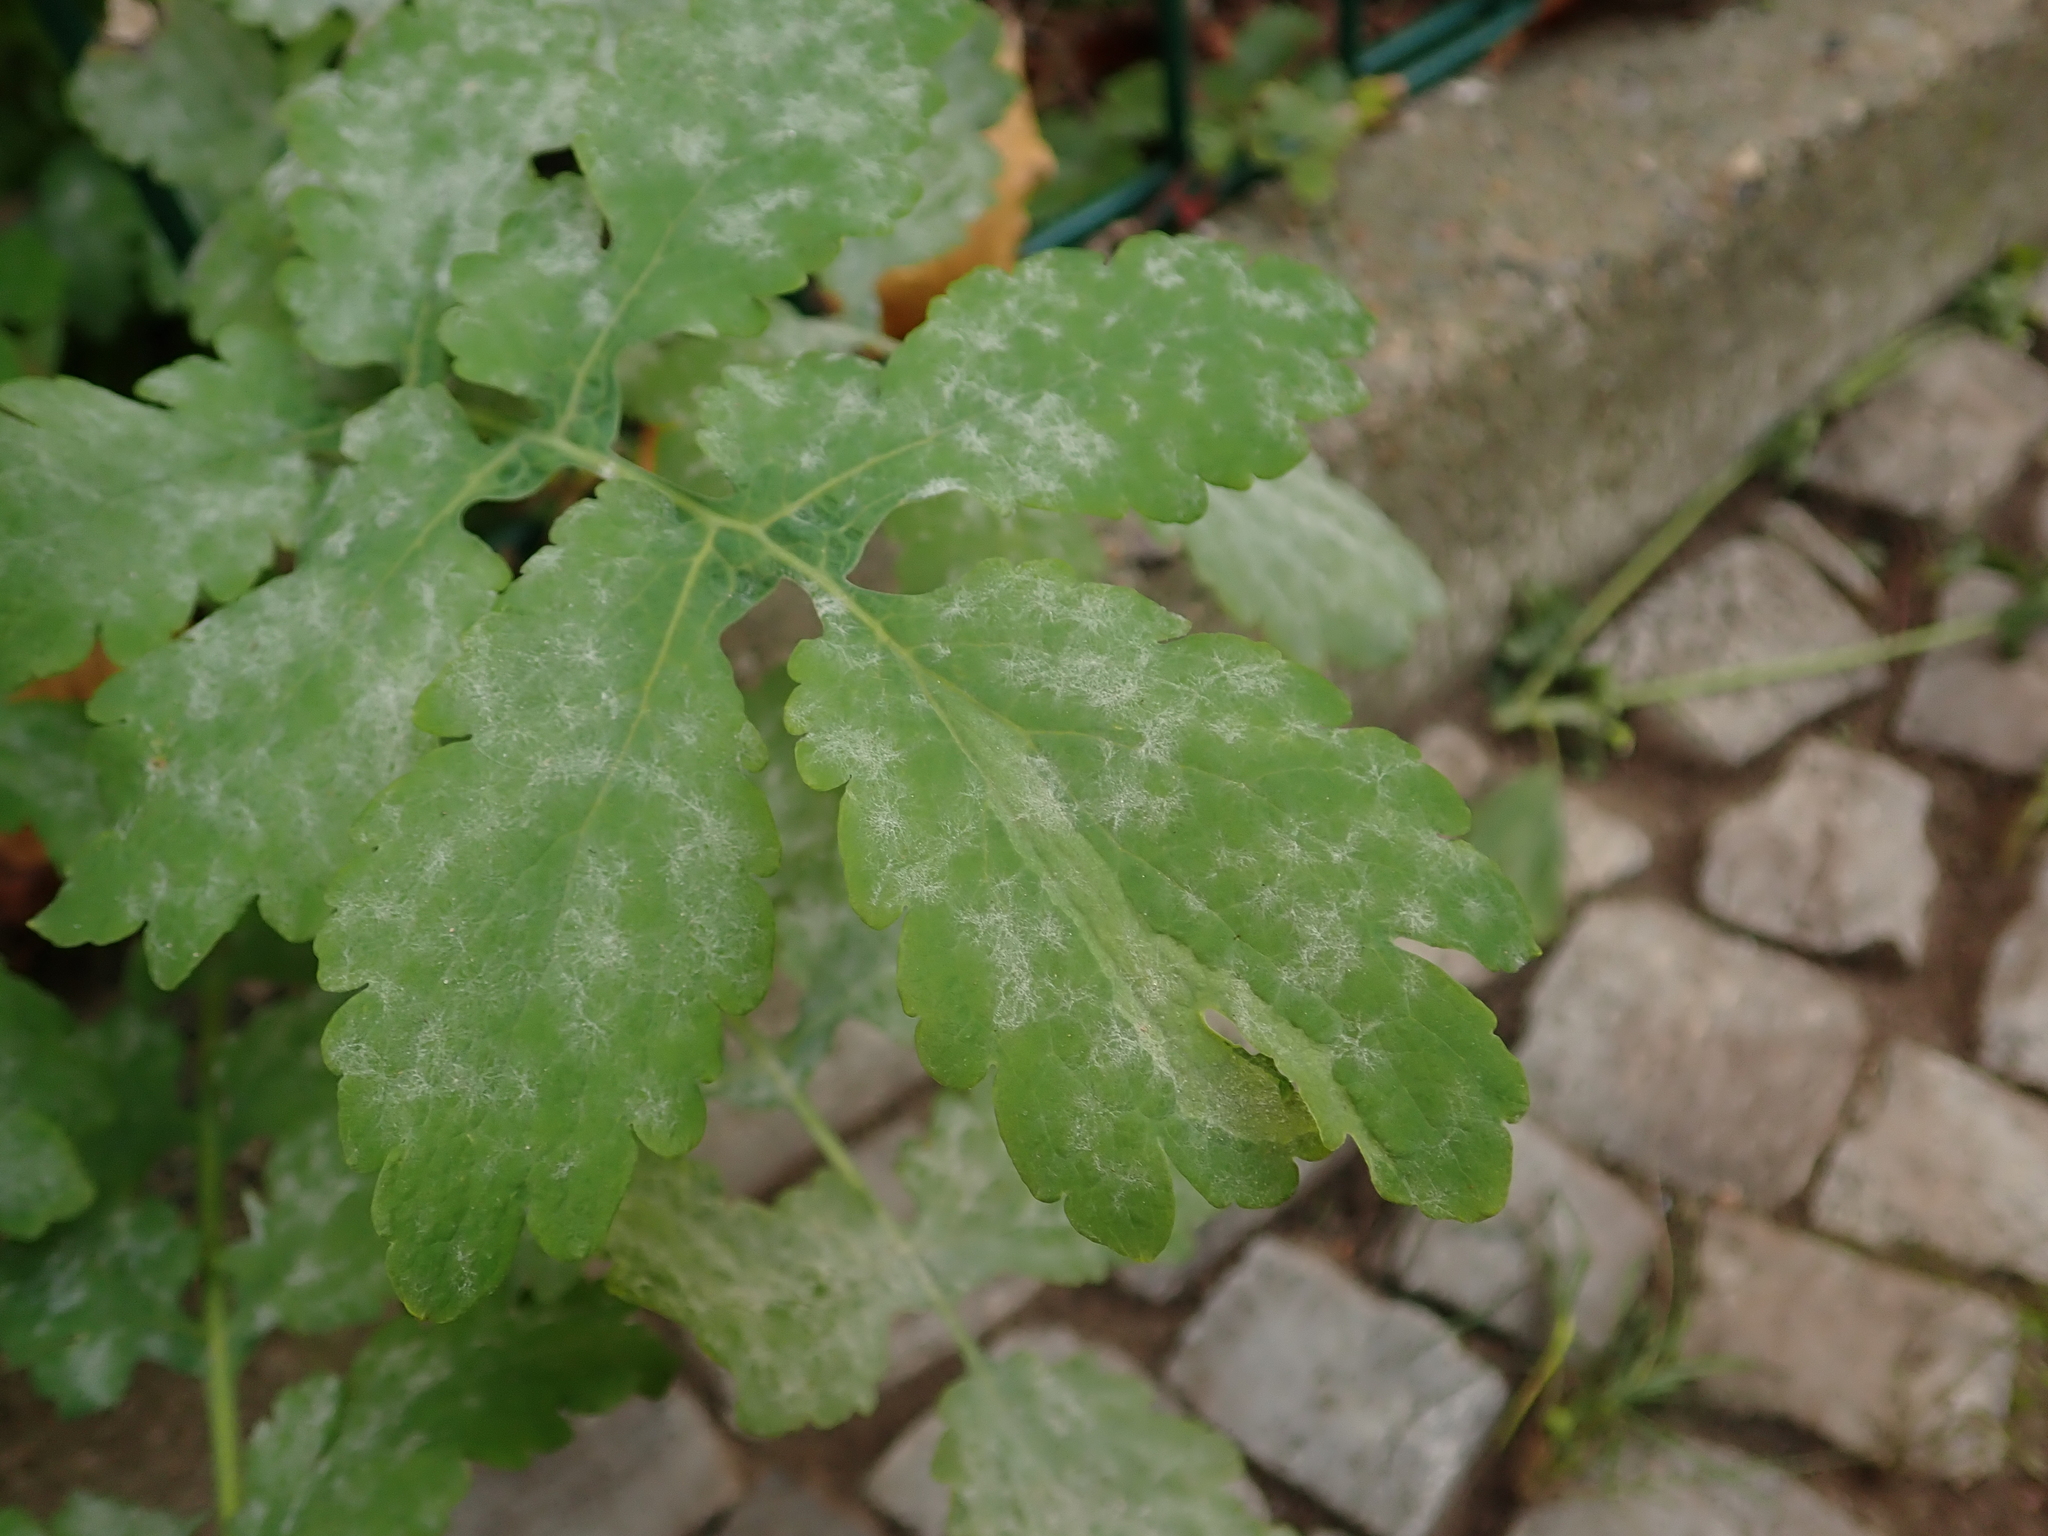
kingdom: Plantae
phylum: Tracheophyta
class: Magnoliopsida
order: Ranunculales
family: Papaveraceae
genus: Chelidonium
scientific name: Chelidonium majus
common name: Greater celandine
